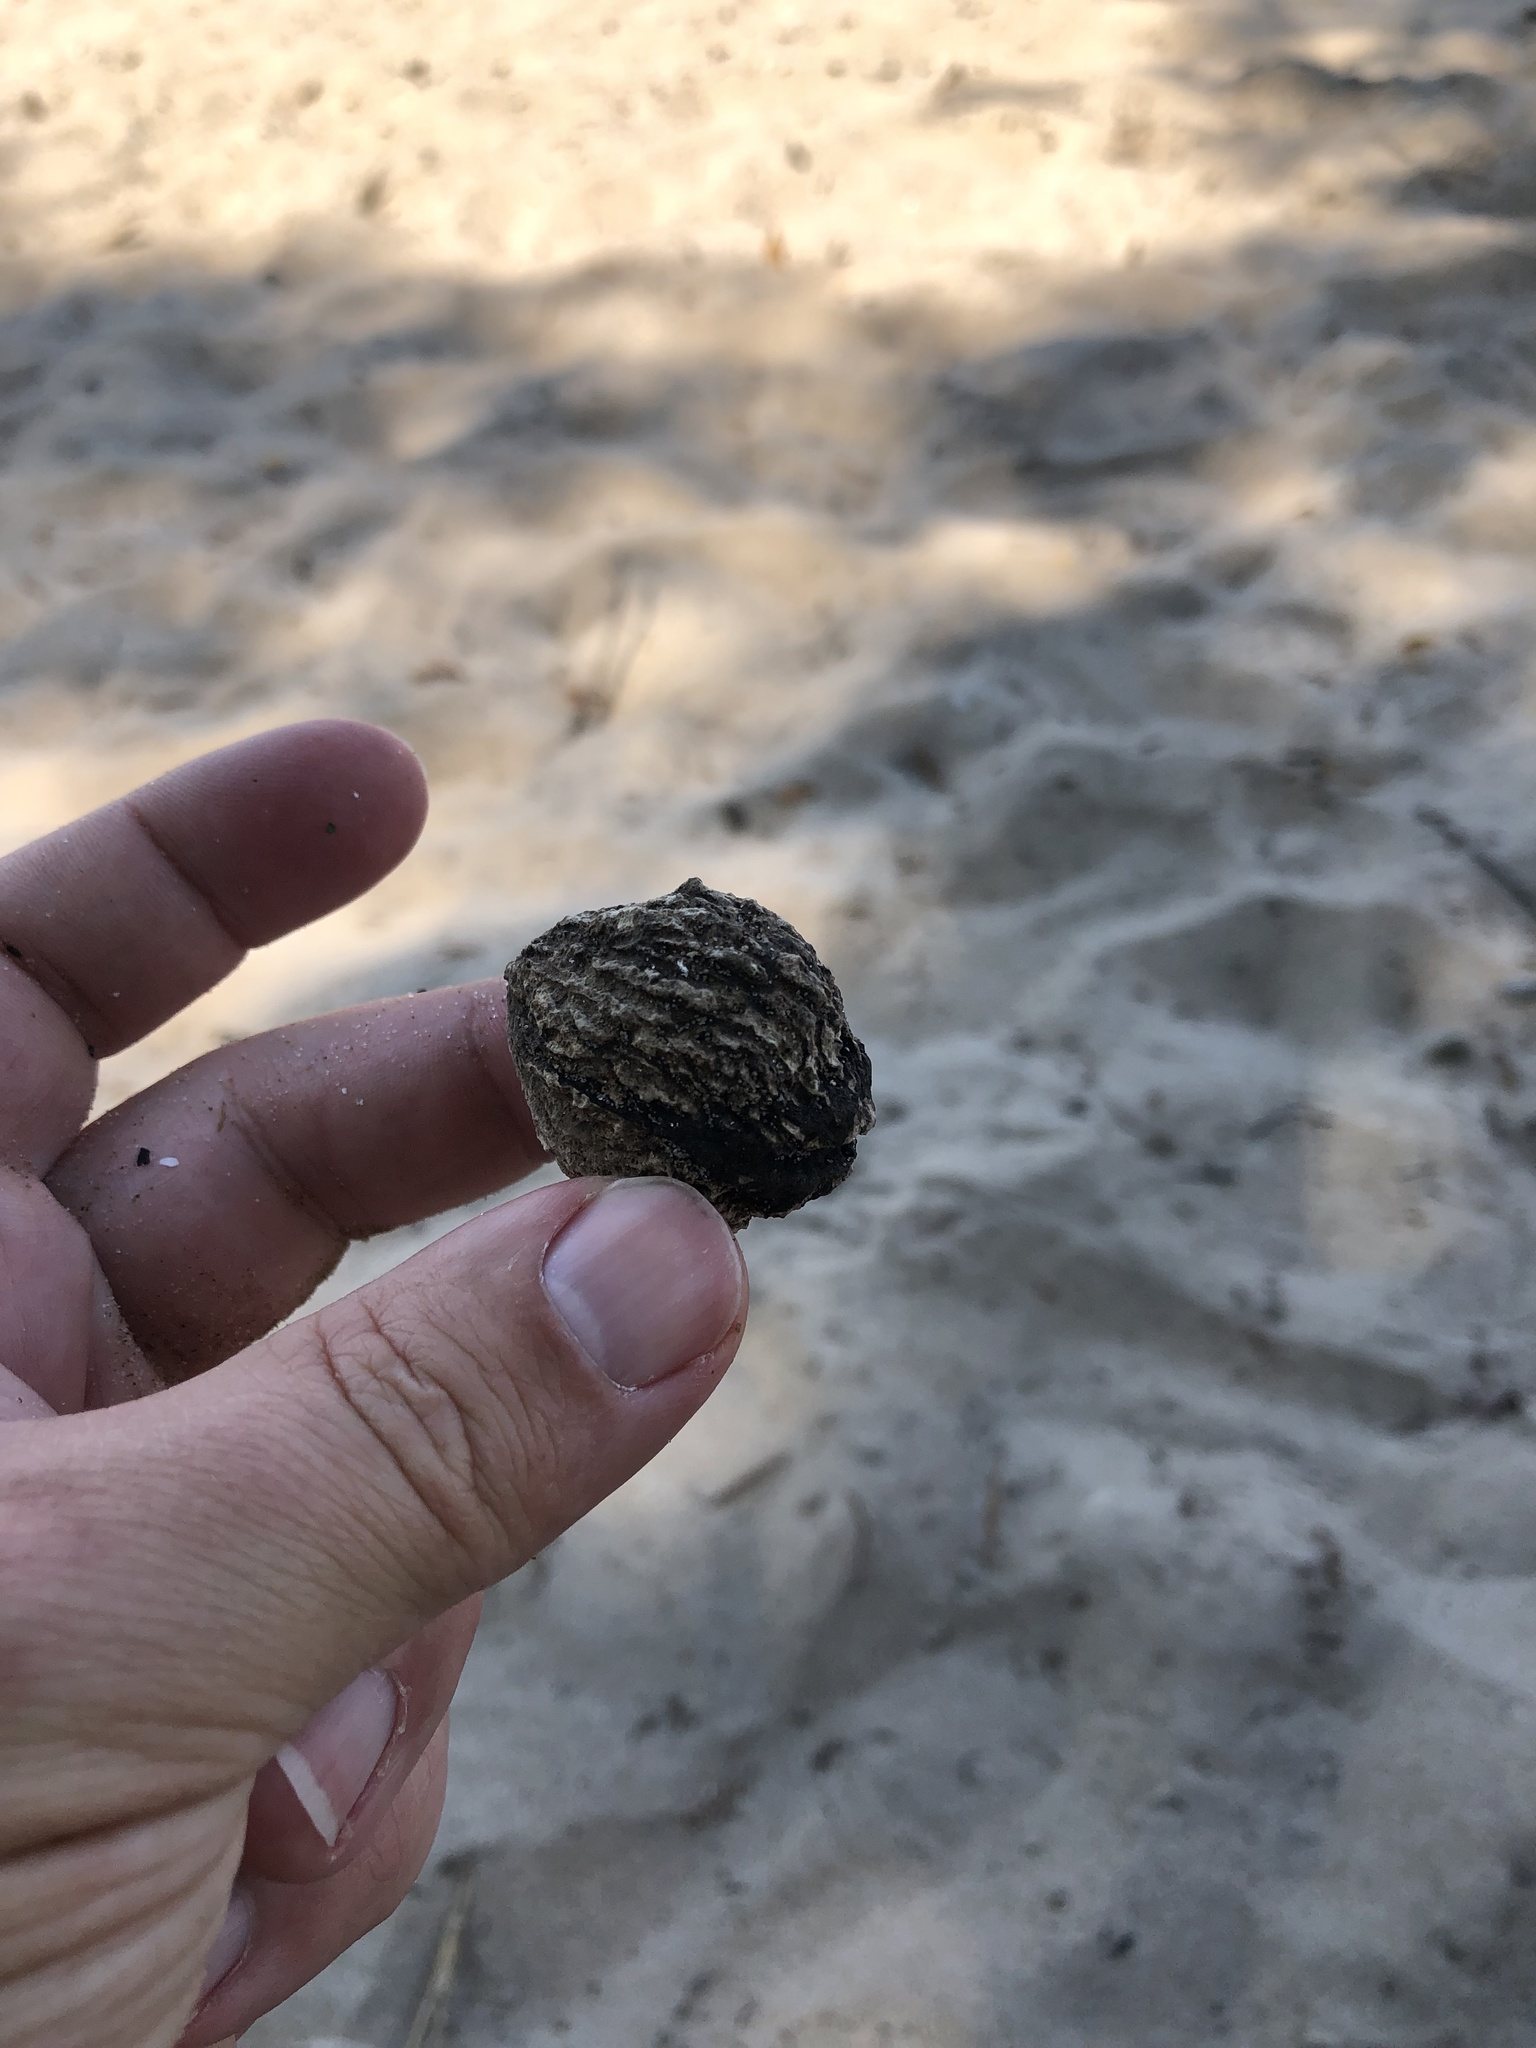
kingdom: Plantae
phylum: Tracheophyta
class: Magnoliopsida
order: Fagales
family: Juglandaceae
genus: Juglans
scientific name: Juglans nigra
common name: Black walnut
